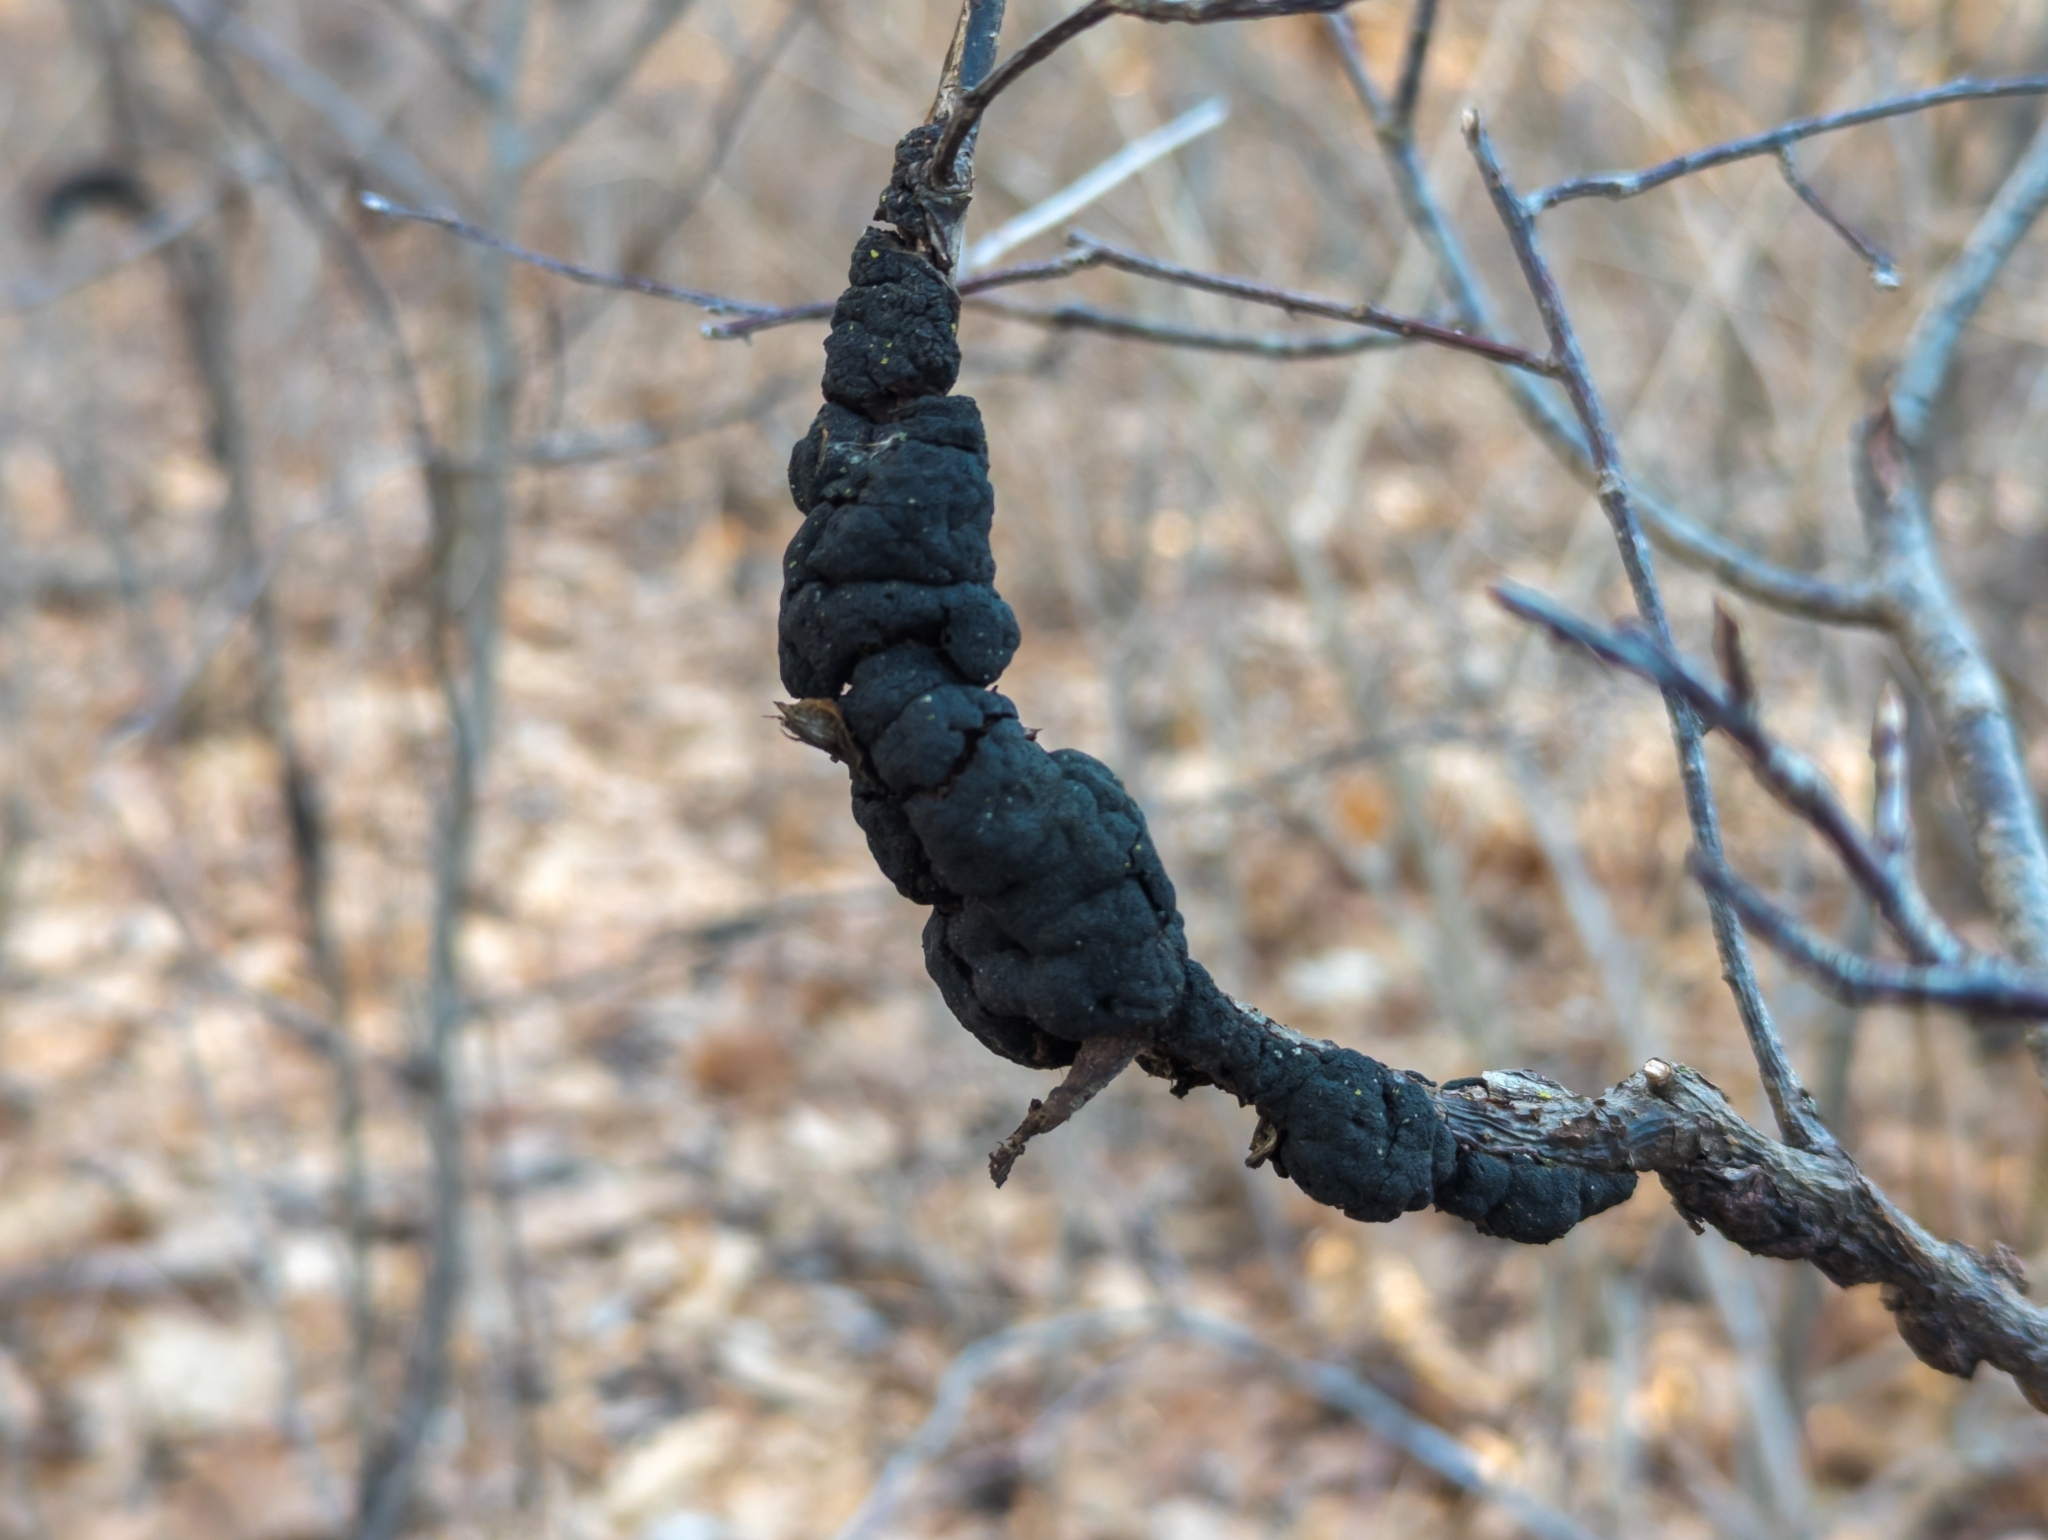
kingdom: Fungi
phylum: Ascomycota
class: Dothideomycetes
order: Venturiales
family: Venturiaceae
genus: Apiosporina
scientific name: Apiosporina morbosa
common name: Black knot
